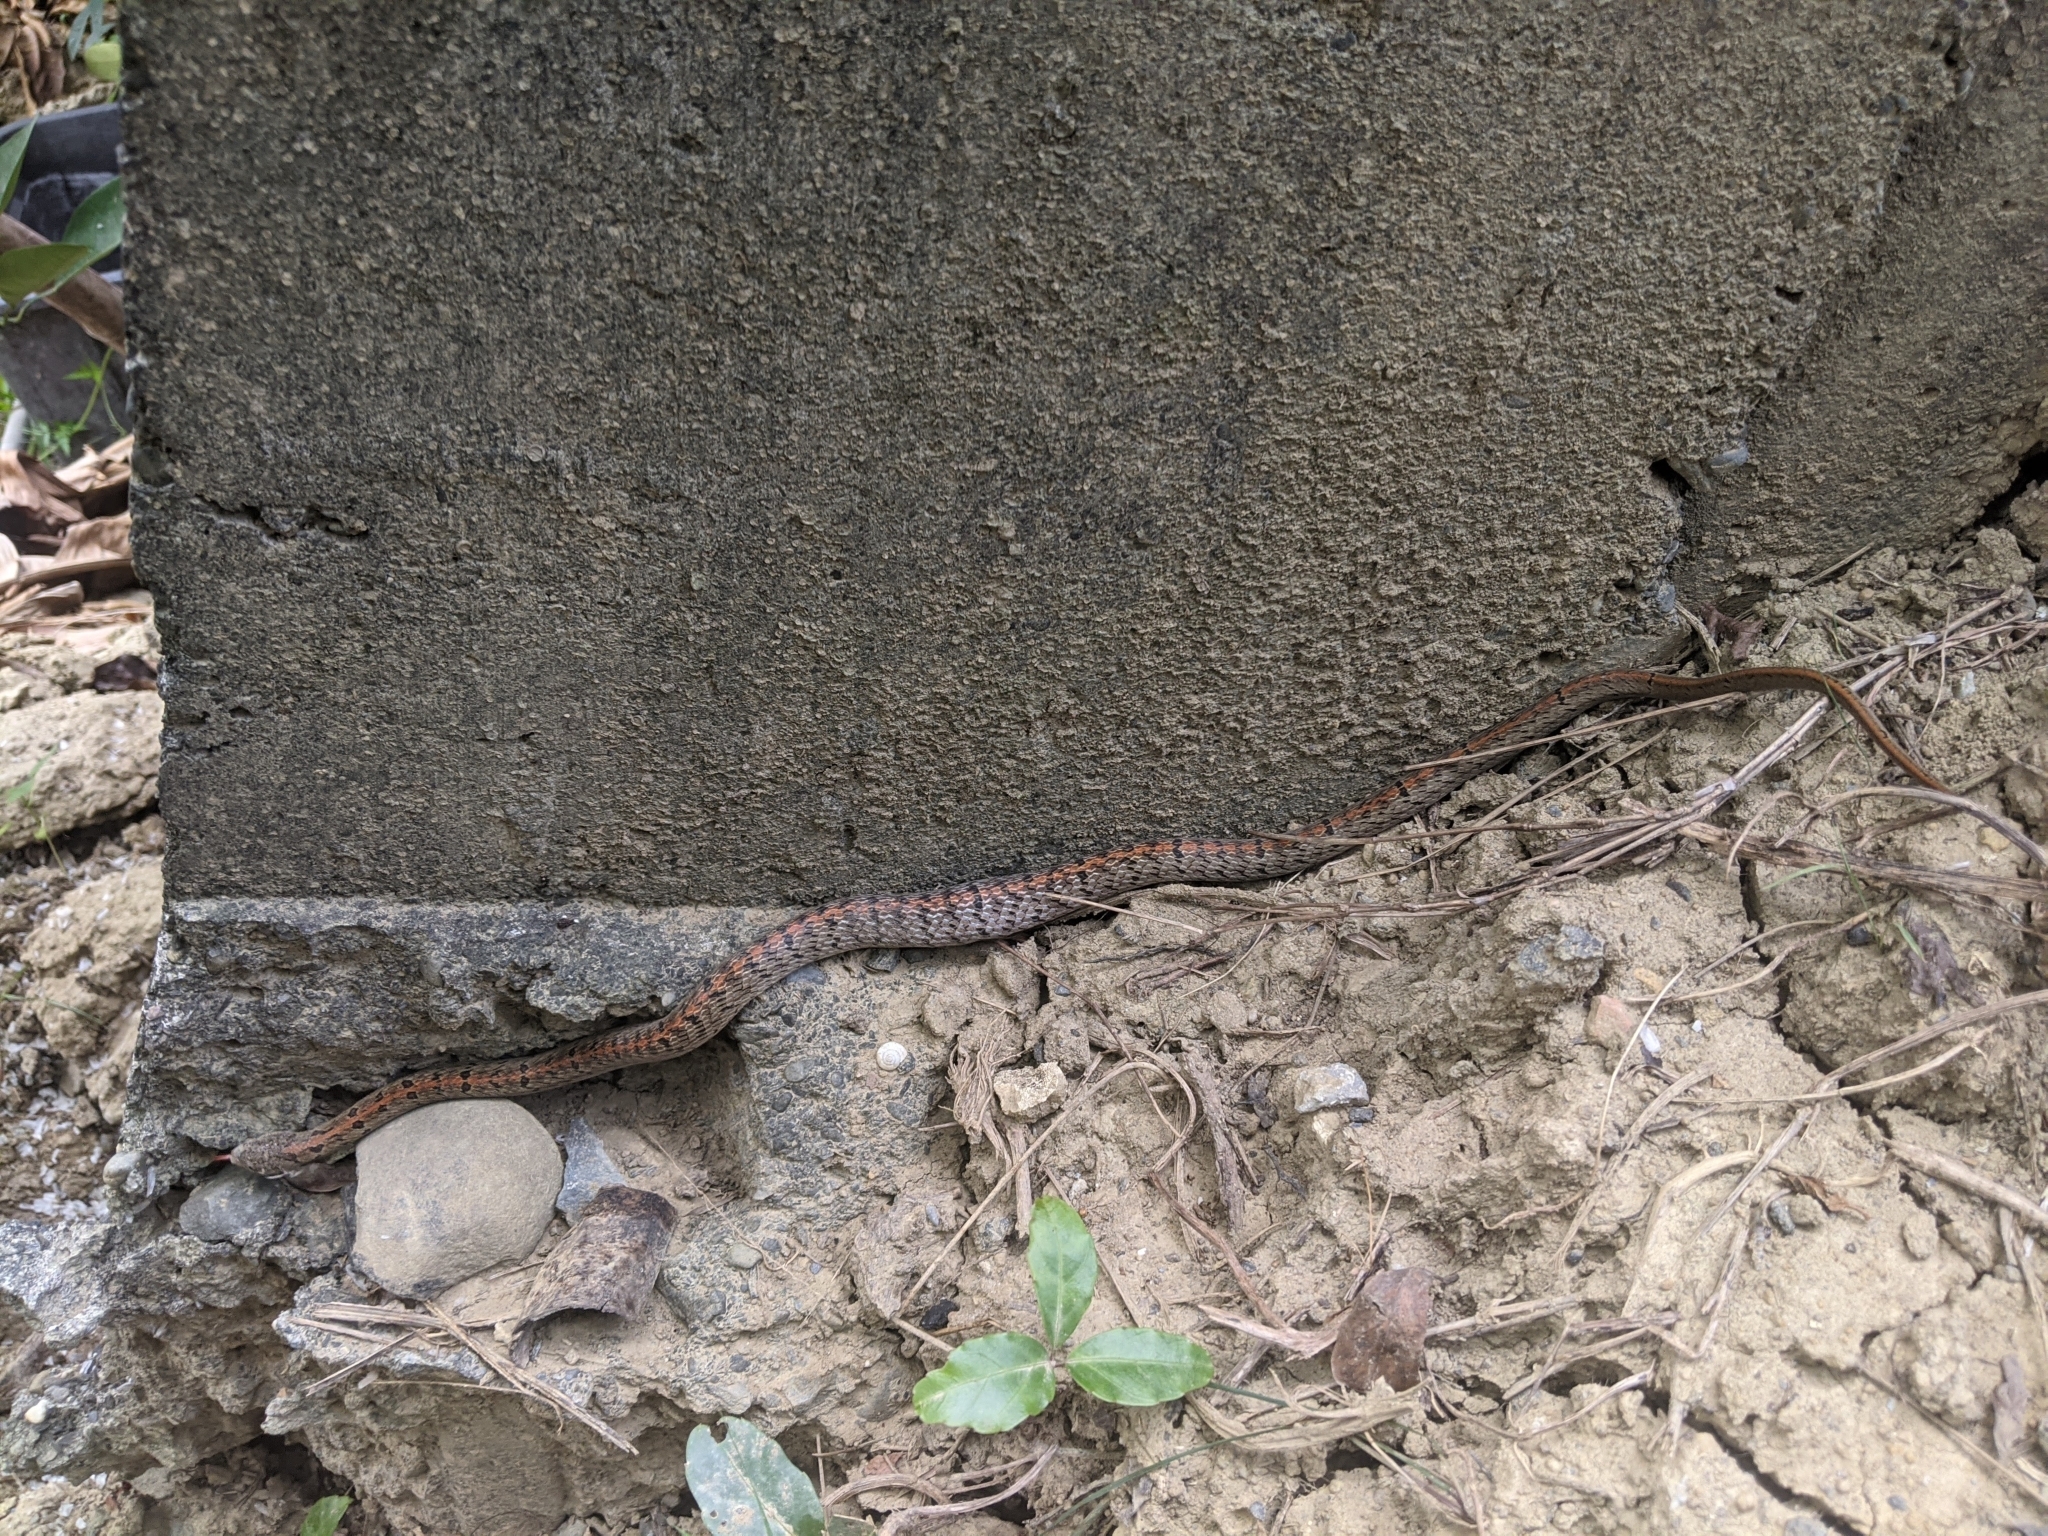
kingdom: Animalia
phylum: Chordata
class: Squamata
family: Colubridae
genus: Oligodon
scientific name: Oligodon formosanus
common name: Formosa kukri snake
